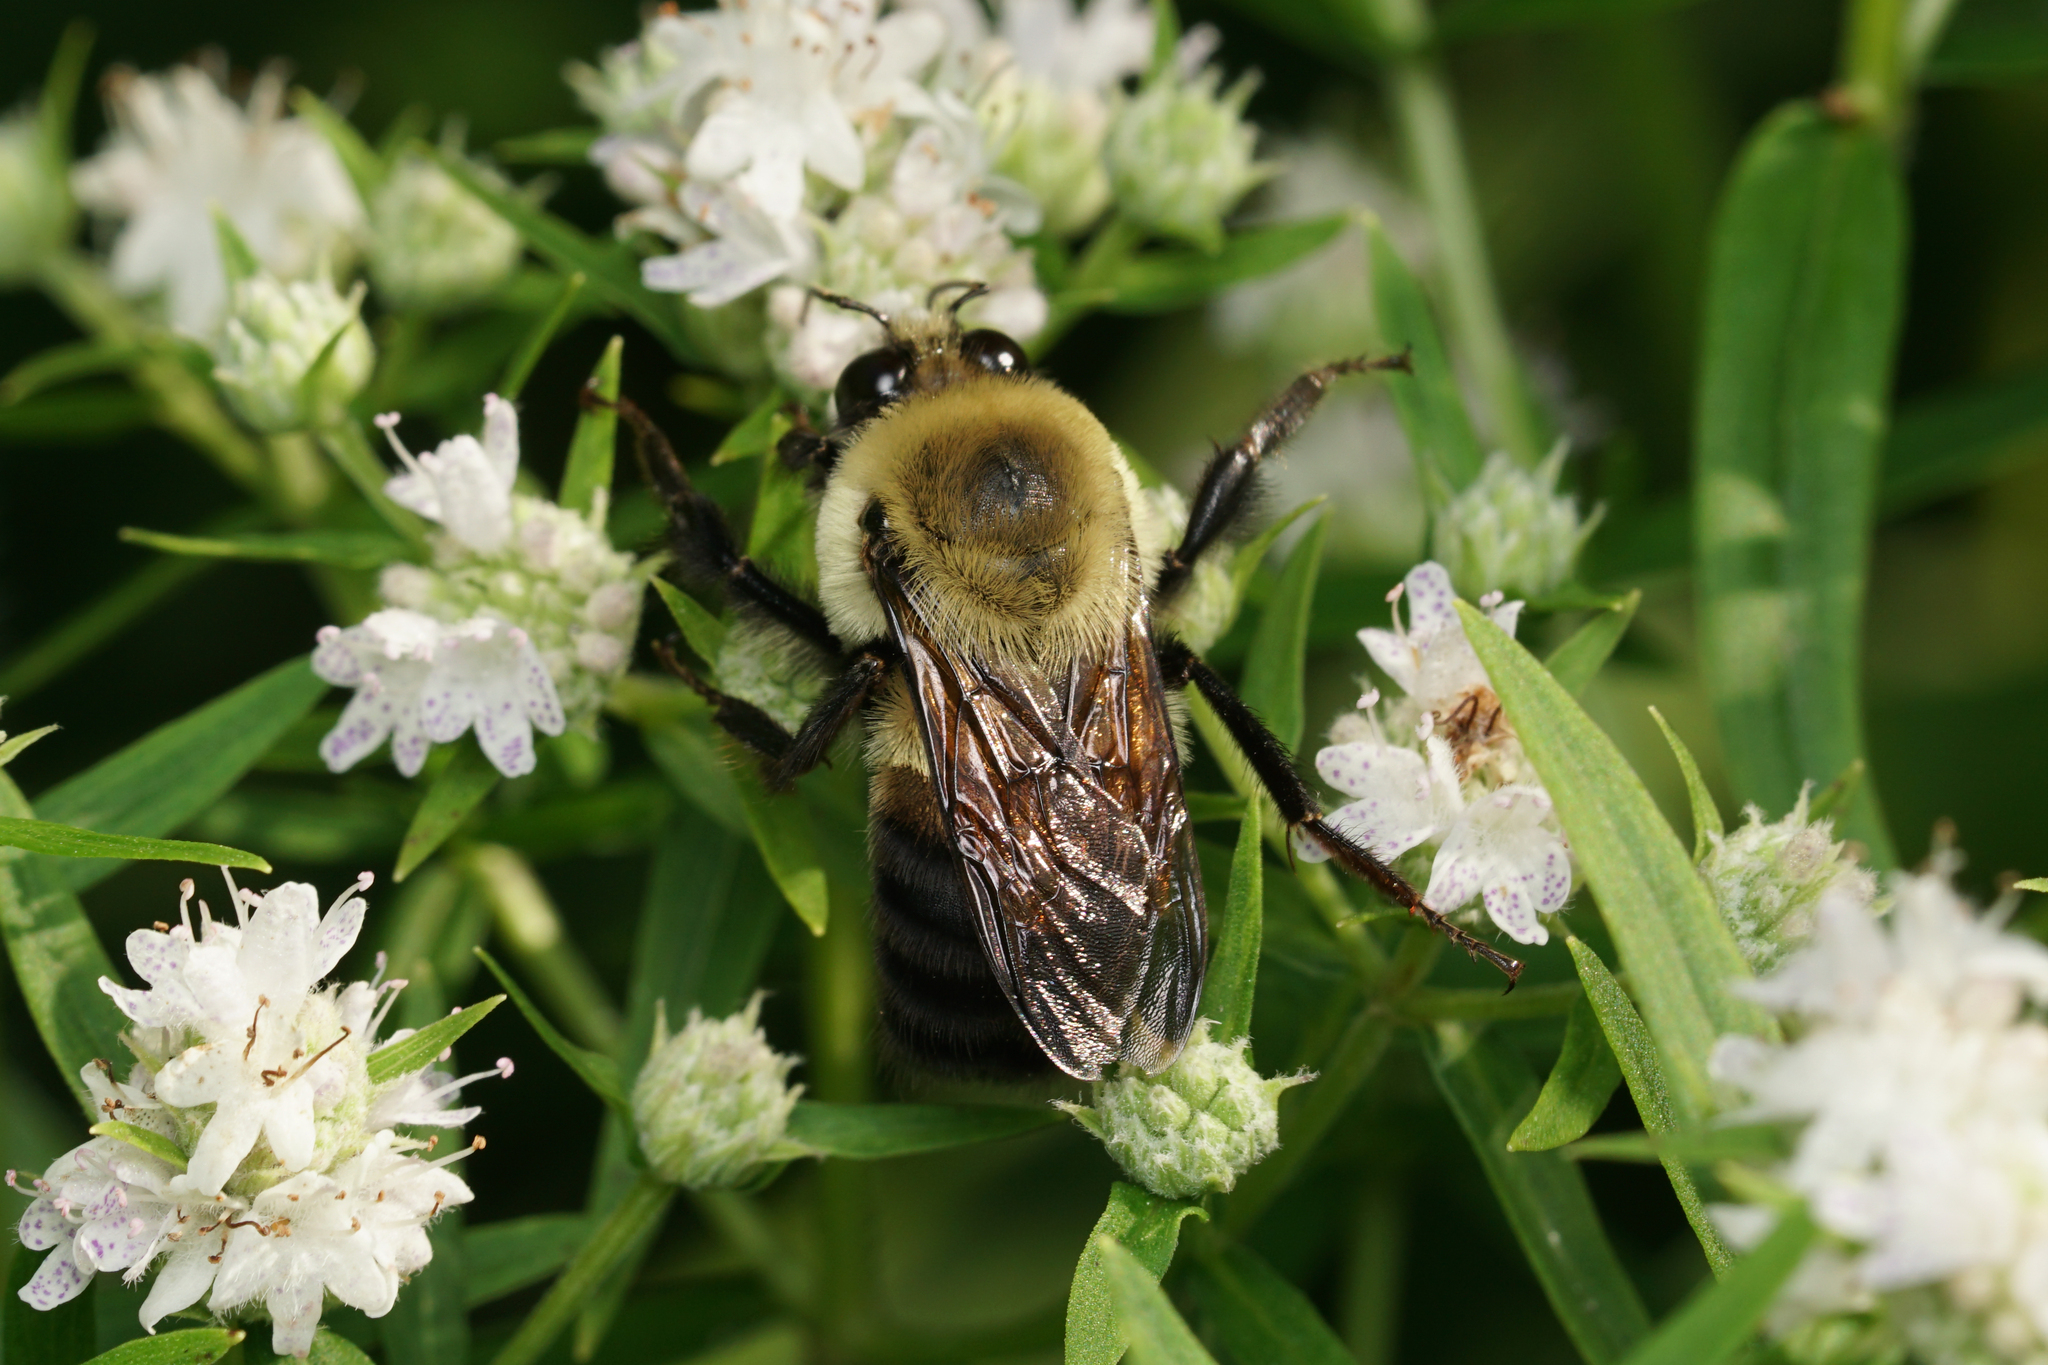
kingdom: Animalia
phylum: Arthropoda
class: Insecta
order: Hymenoptera
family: Apidae
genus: Bombus
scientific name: Bombus griseocollis
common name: Brown-belted bumble bee
